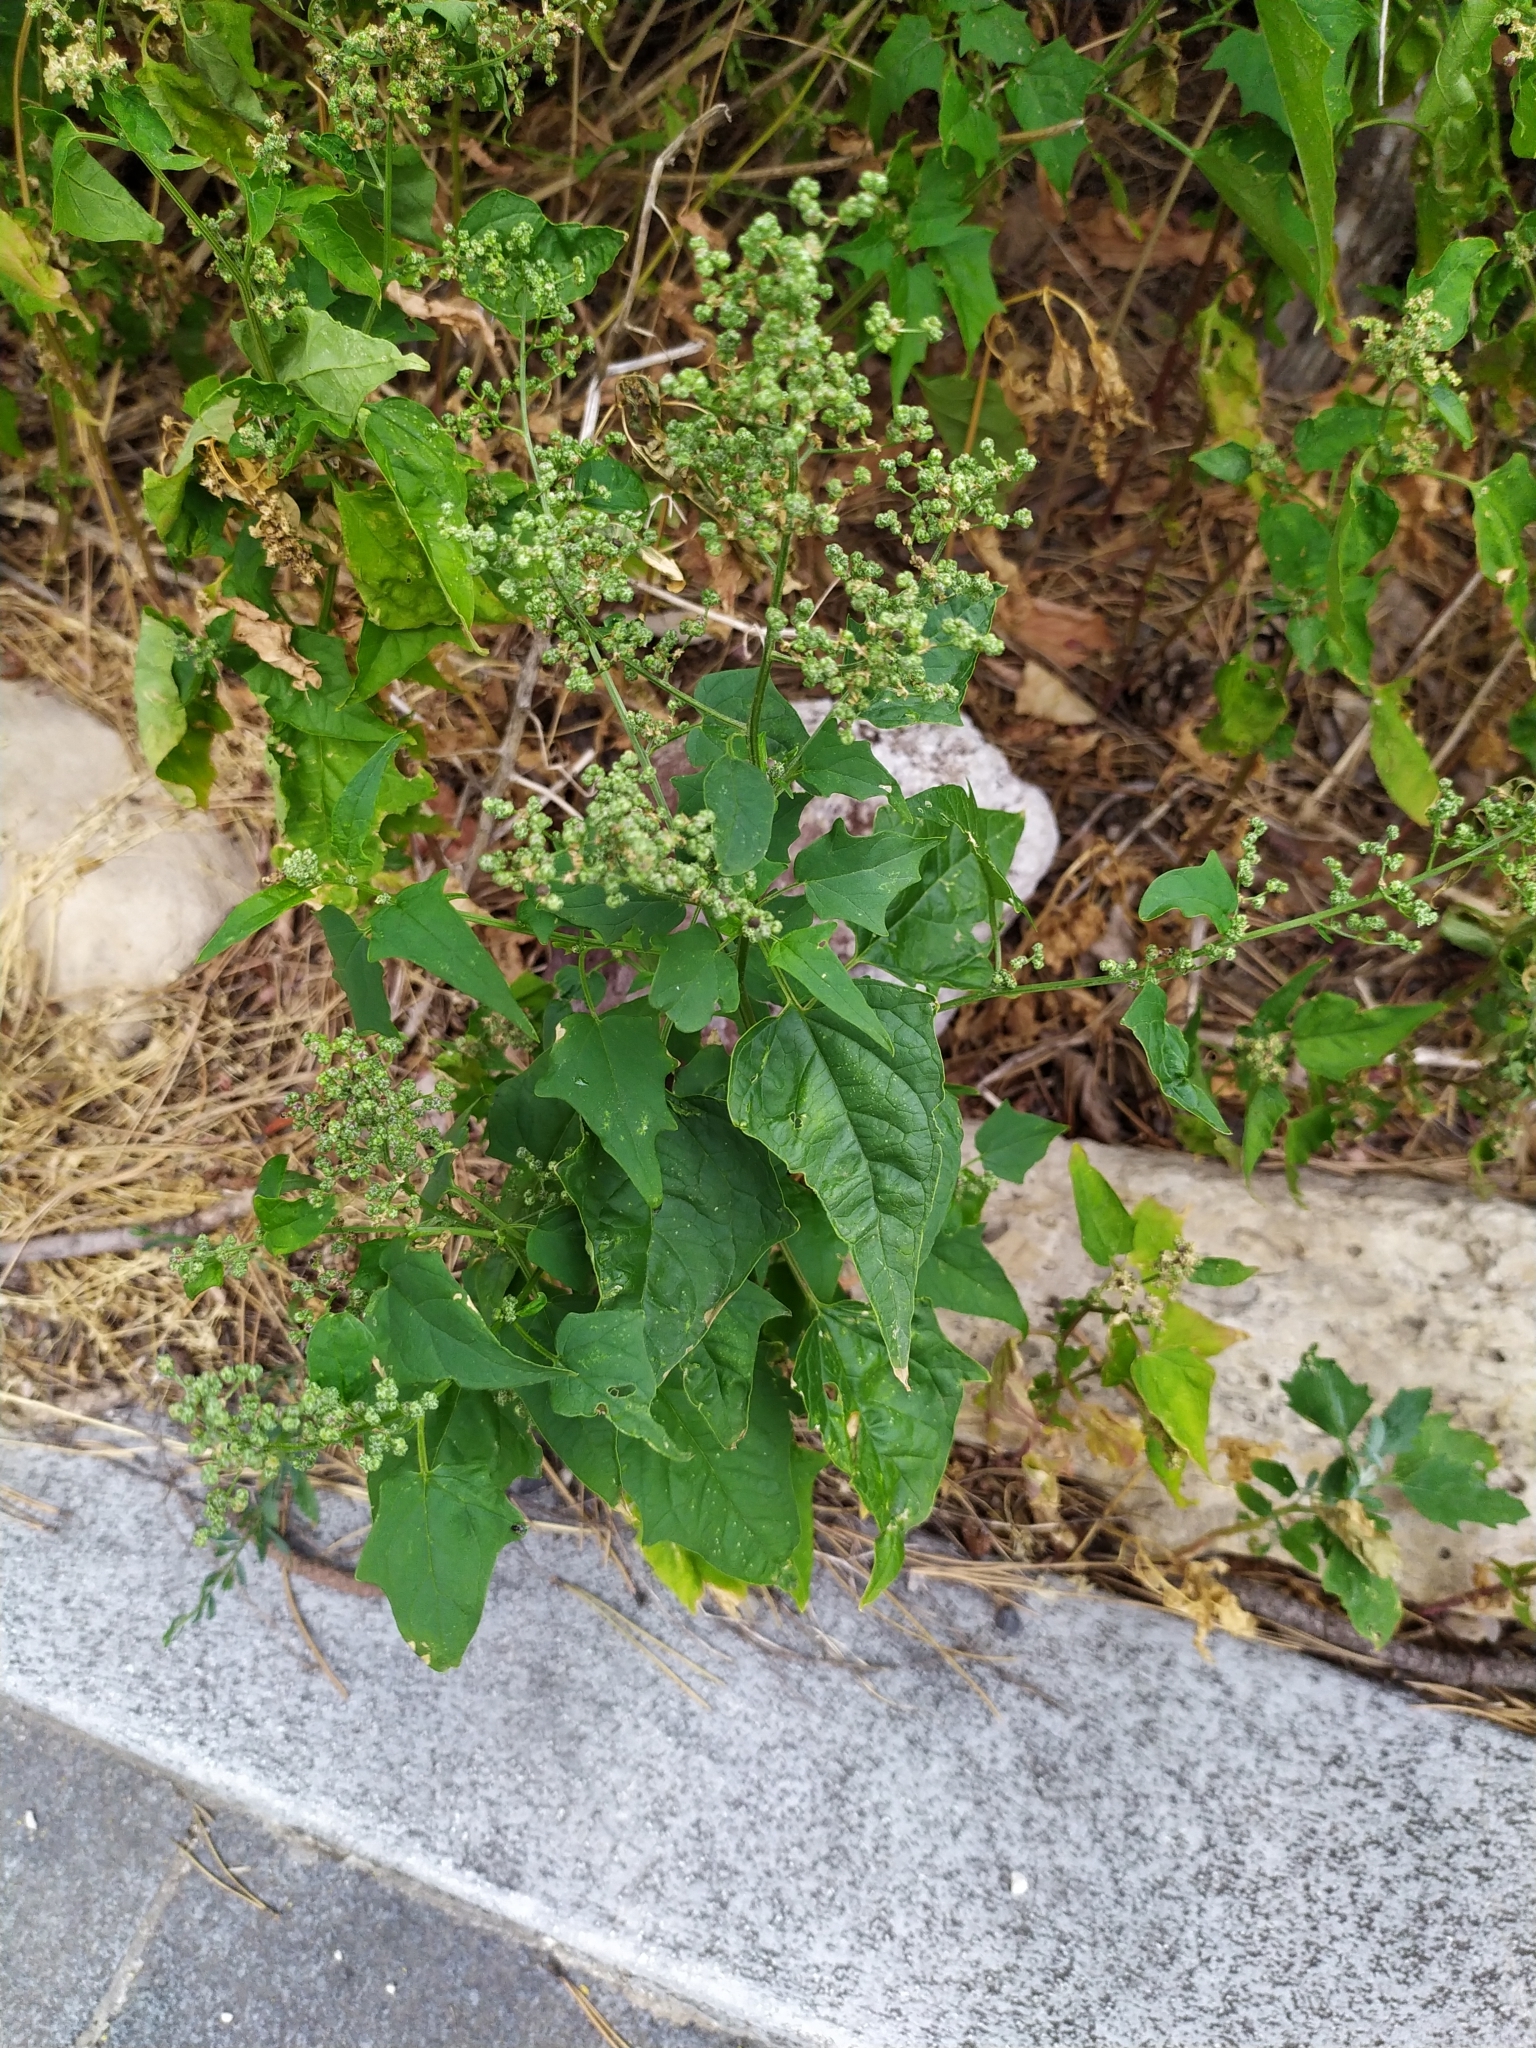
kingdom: Plantae
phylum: Tracheophyta
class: Magnoliopsida
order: Caryophyllales
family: Amaranthaceae
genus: Chenopodiastrum
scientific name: Chenopodiastrum hybridum
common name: Mapleleaf goosefoot
